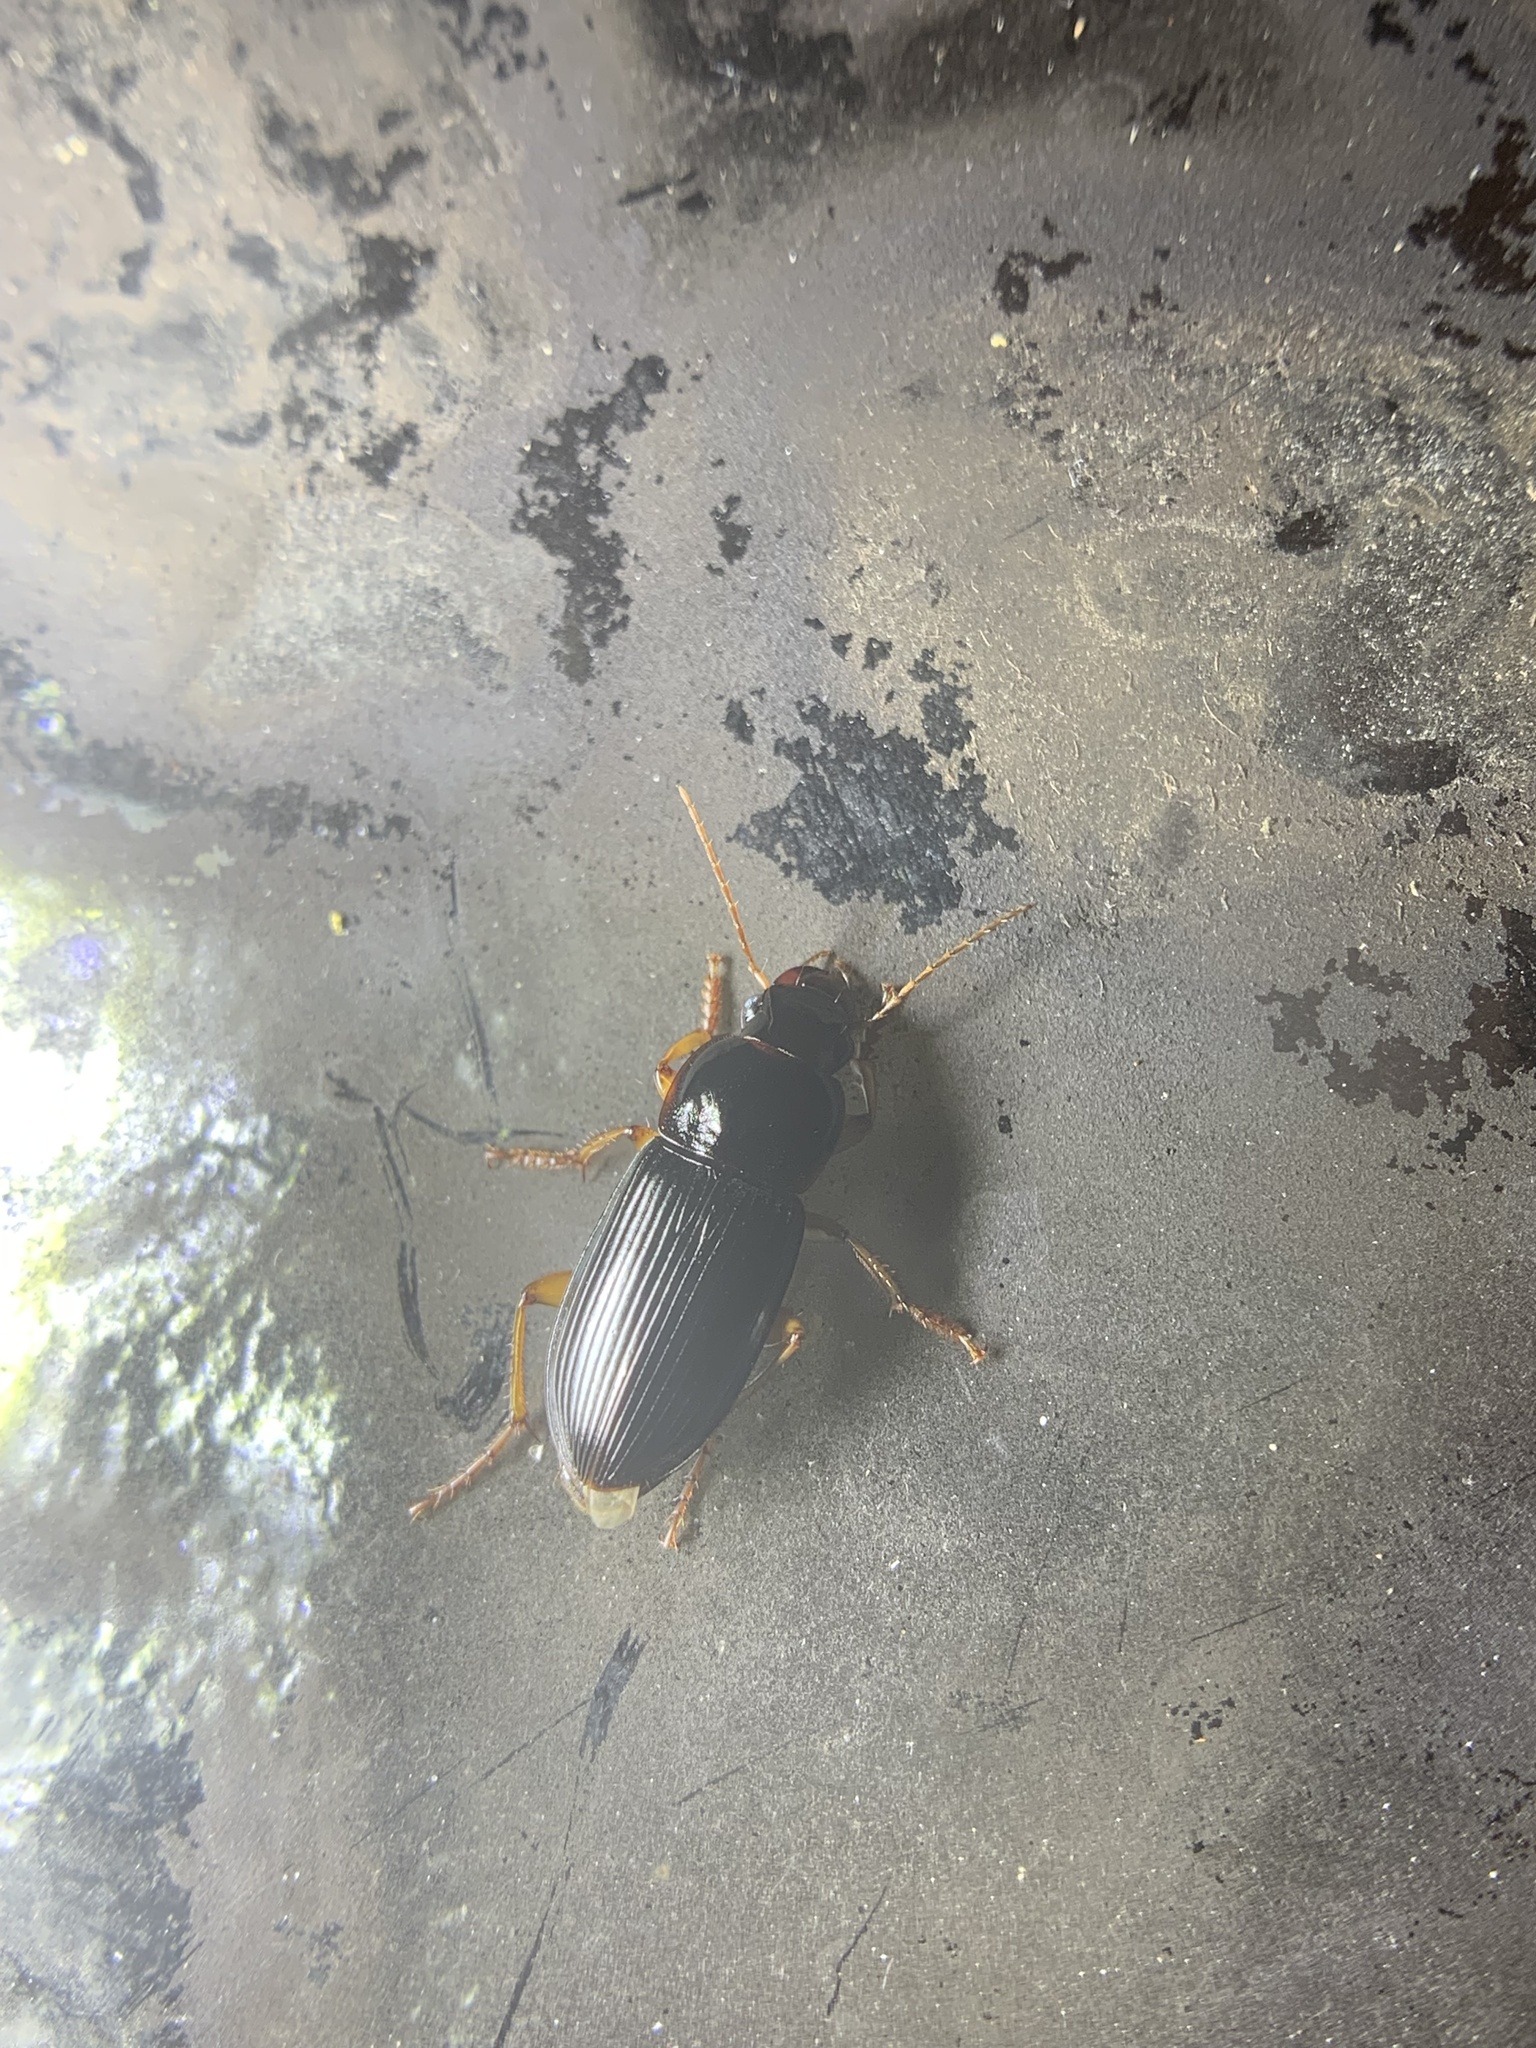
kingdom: Animalia
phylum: Arthropoda
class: Insecta
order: Coleoptera
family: Carabidae
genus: Harpalus
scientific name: Harpalus pensylvanicus
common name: Pennsylvania dingy ground beetle
